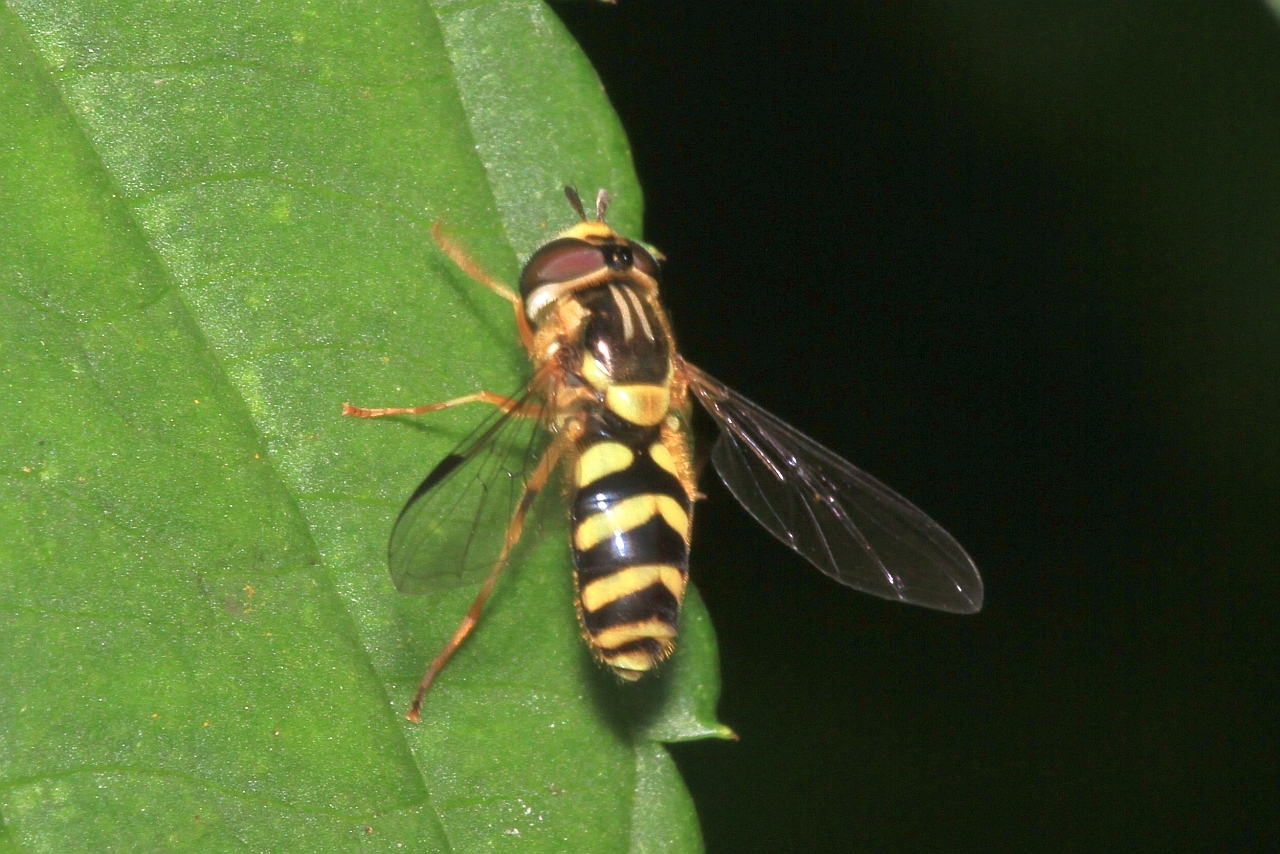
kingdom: Animalia
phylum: Arthropoda
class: Insecta
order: Diptera
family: Syrphidae
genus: Dasysyrphus
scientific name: Dasysyrphus albostriatus
